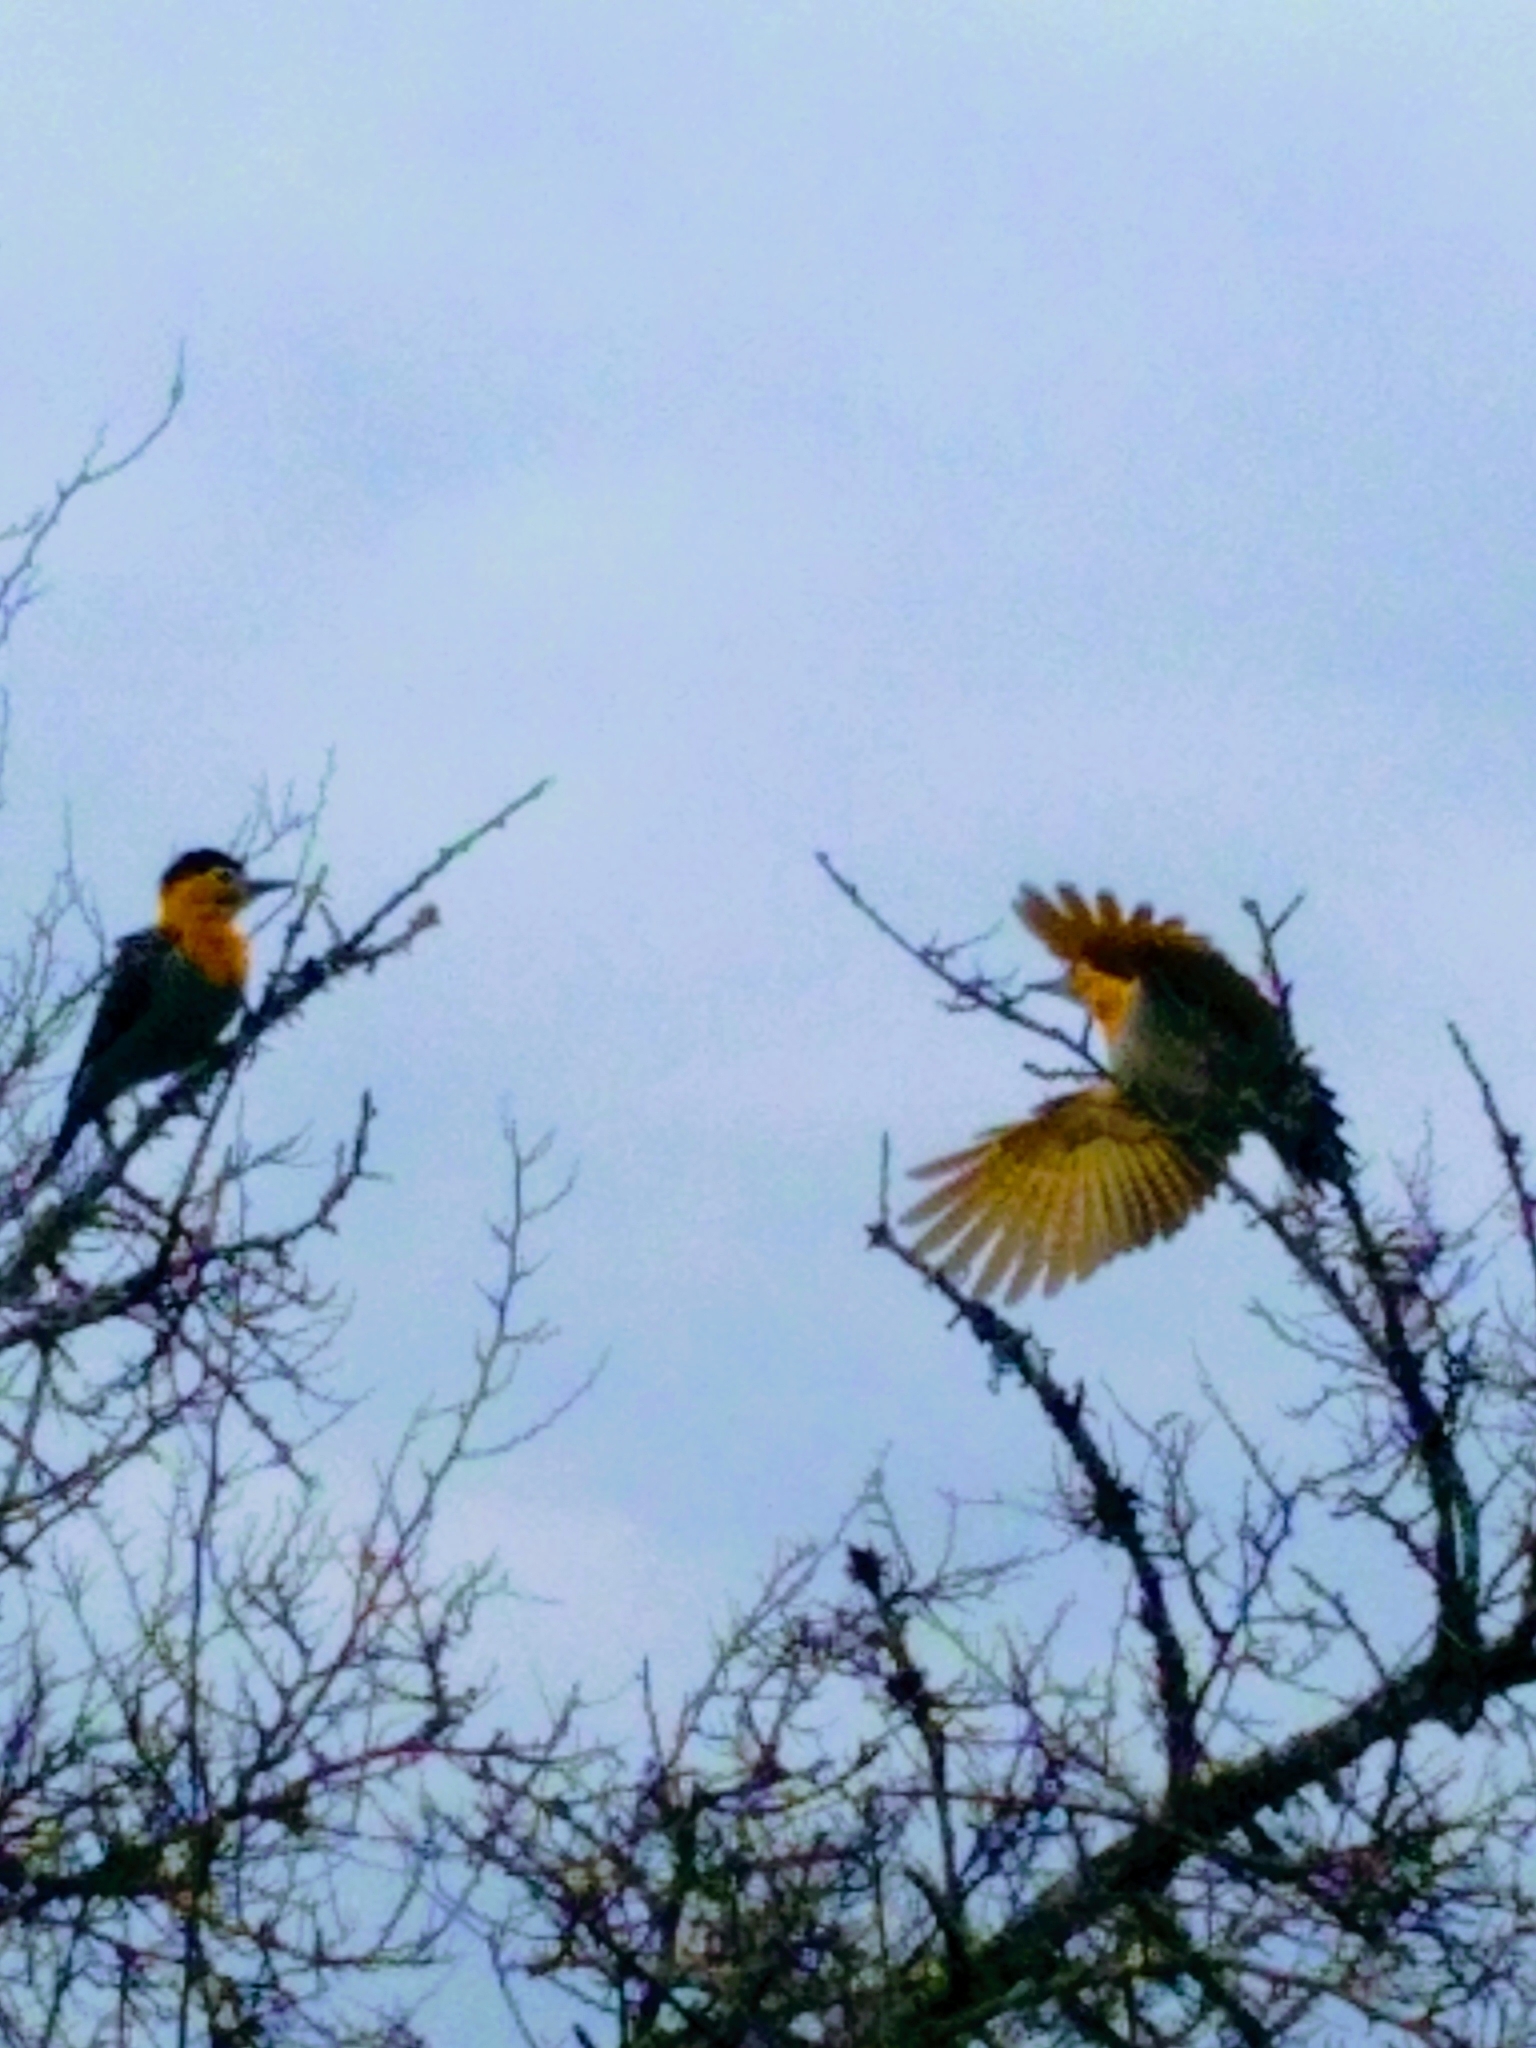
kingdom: Animalia
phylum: Chordata
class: Aves
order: Piciformes
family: Picidae
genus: Colaptes
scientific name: Colaptes campestris
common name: Campo flicker
